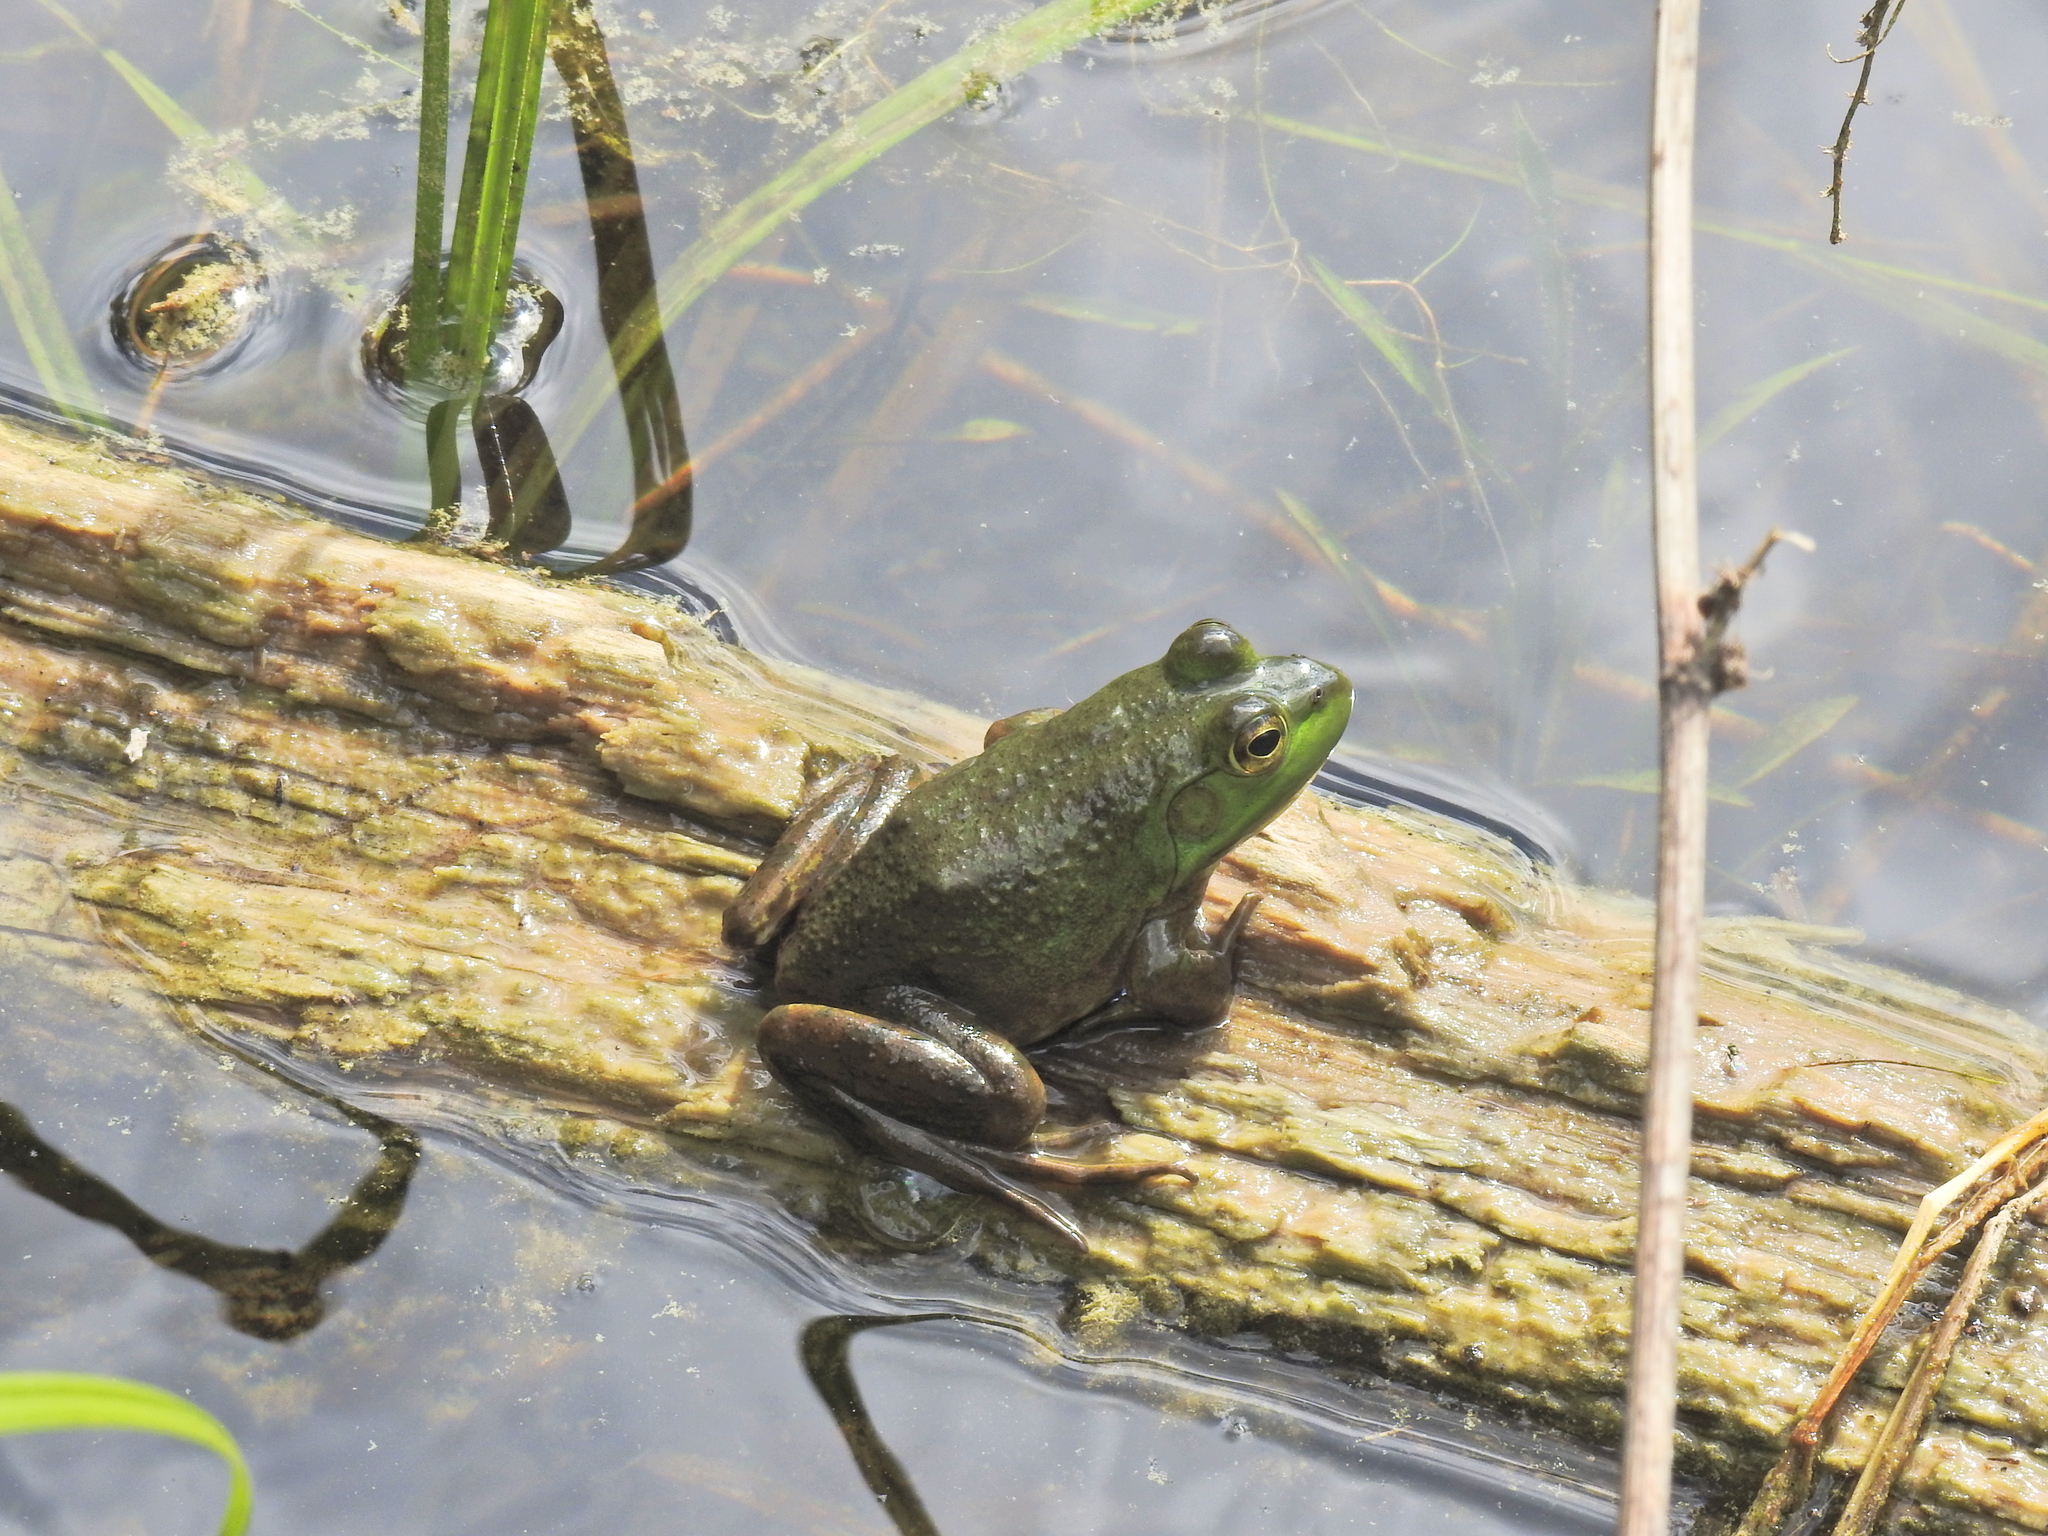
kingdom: Animalia
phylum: Chordata
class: Amphibia
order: Anura
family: Ranidae
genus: Lithobates
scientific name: Lithobates catesbeianus
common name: American bullfrog
